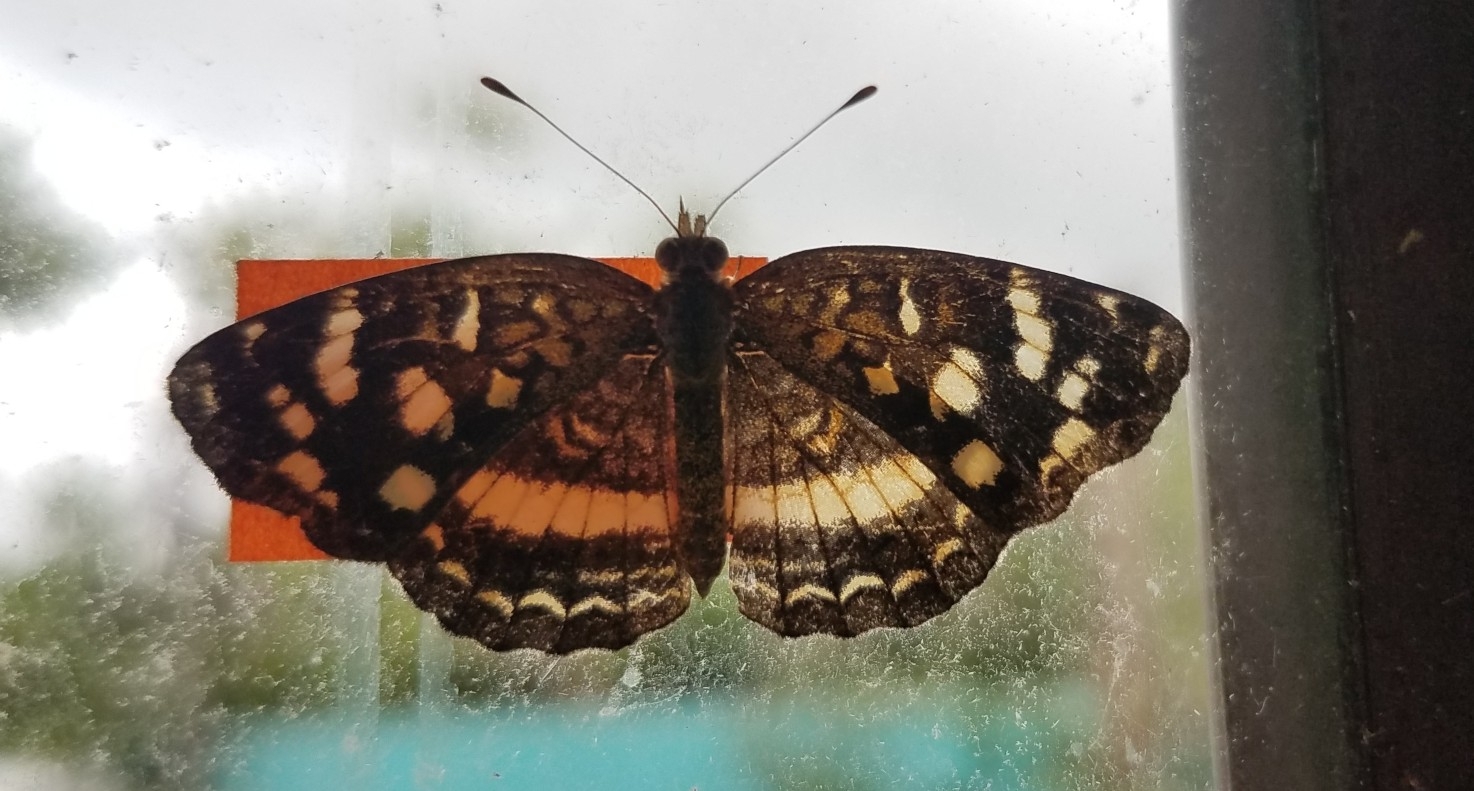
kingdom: Animalia
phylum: Arthropoda
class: Insecta
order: Lepidoptera
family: Nymphalidae
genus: Anthanassa
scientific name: Anthanassa tulcis
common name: Pale-banded crescent
